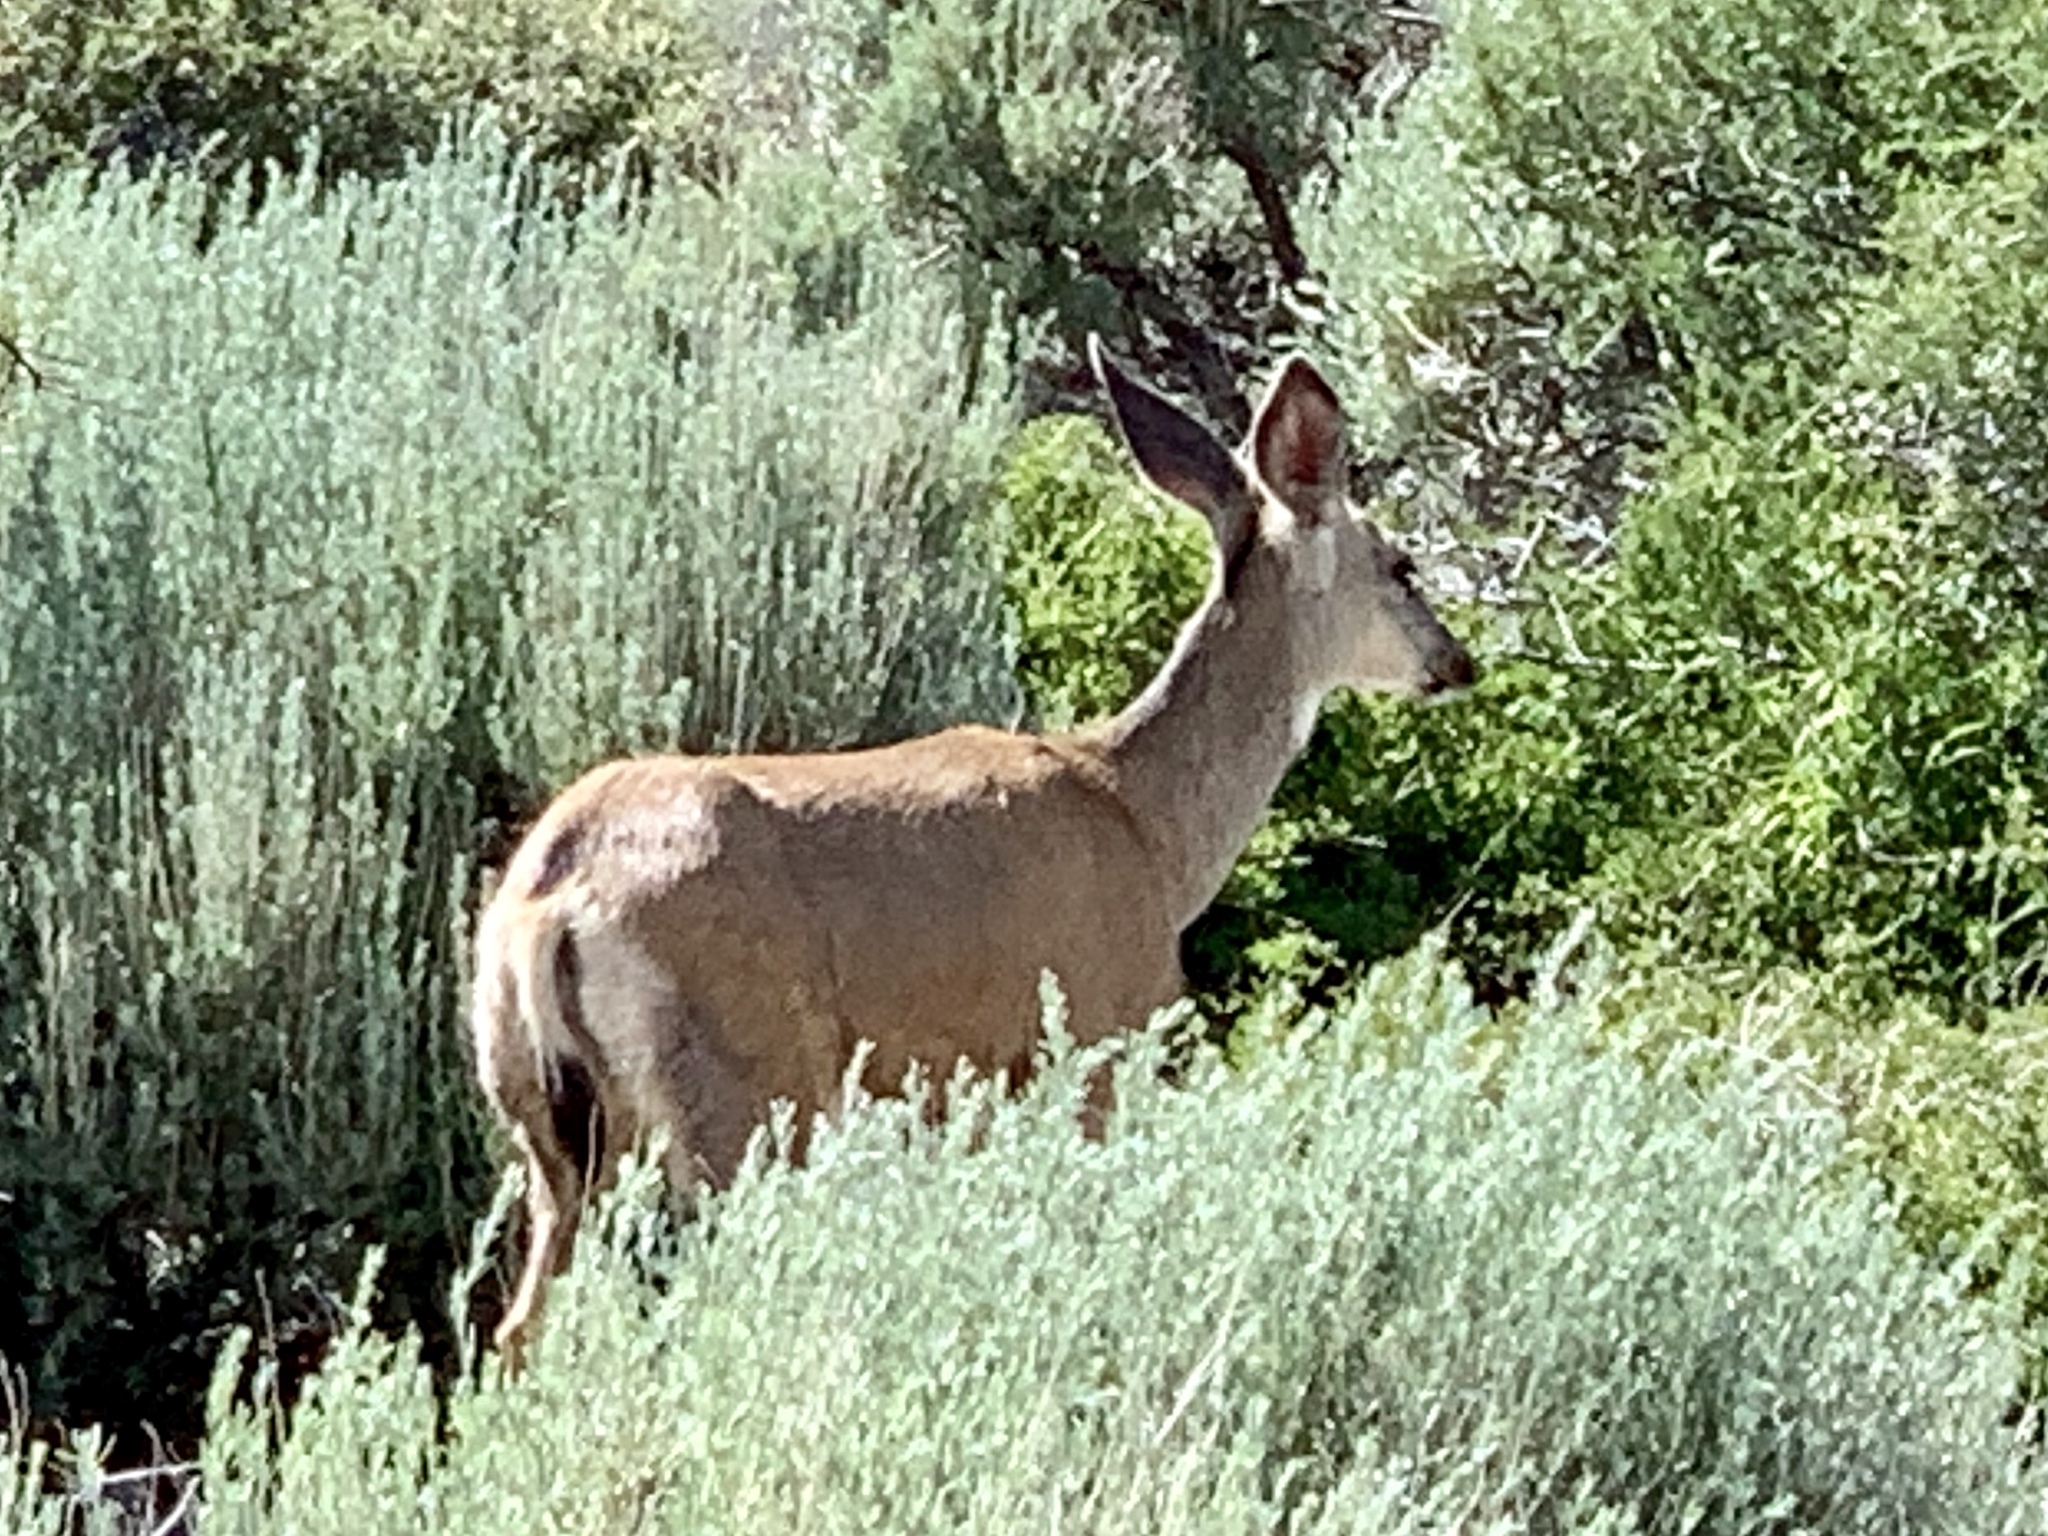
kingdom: Animalia
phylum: Chordata
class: Mammalia
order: Artiodactyla
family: Cervidae
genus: Odocoileus
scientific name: Odocoileus hemionus
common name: Mule deer
